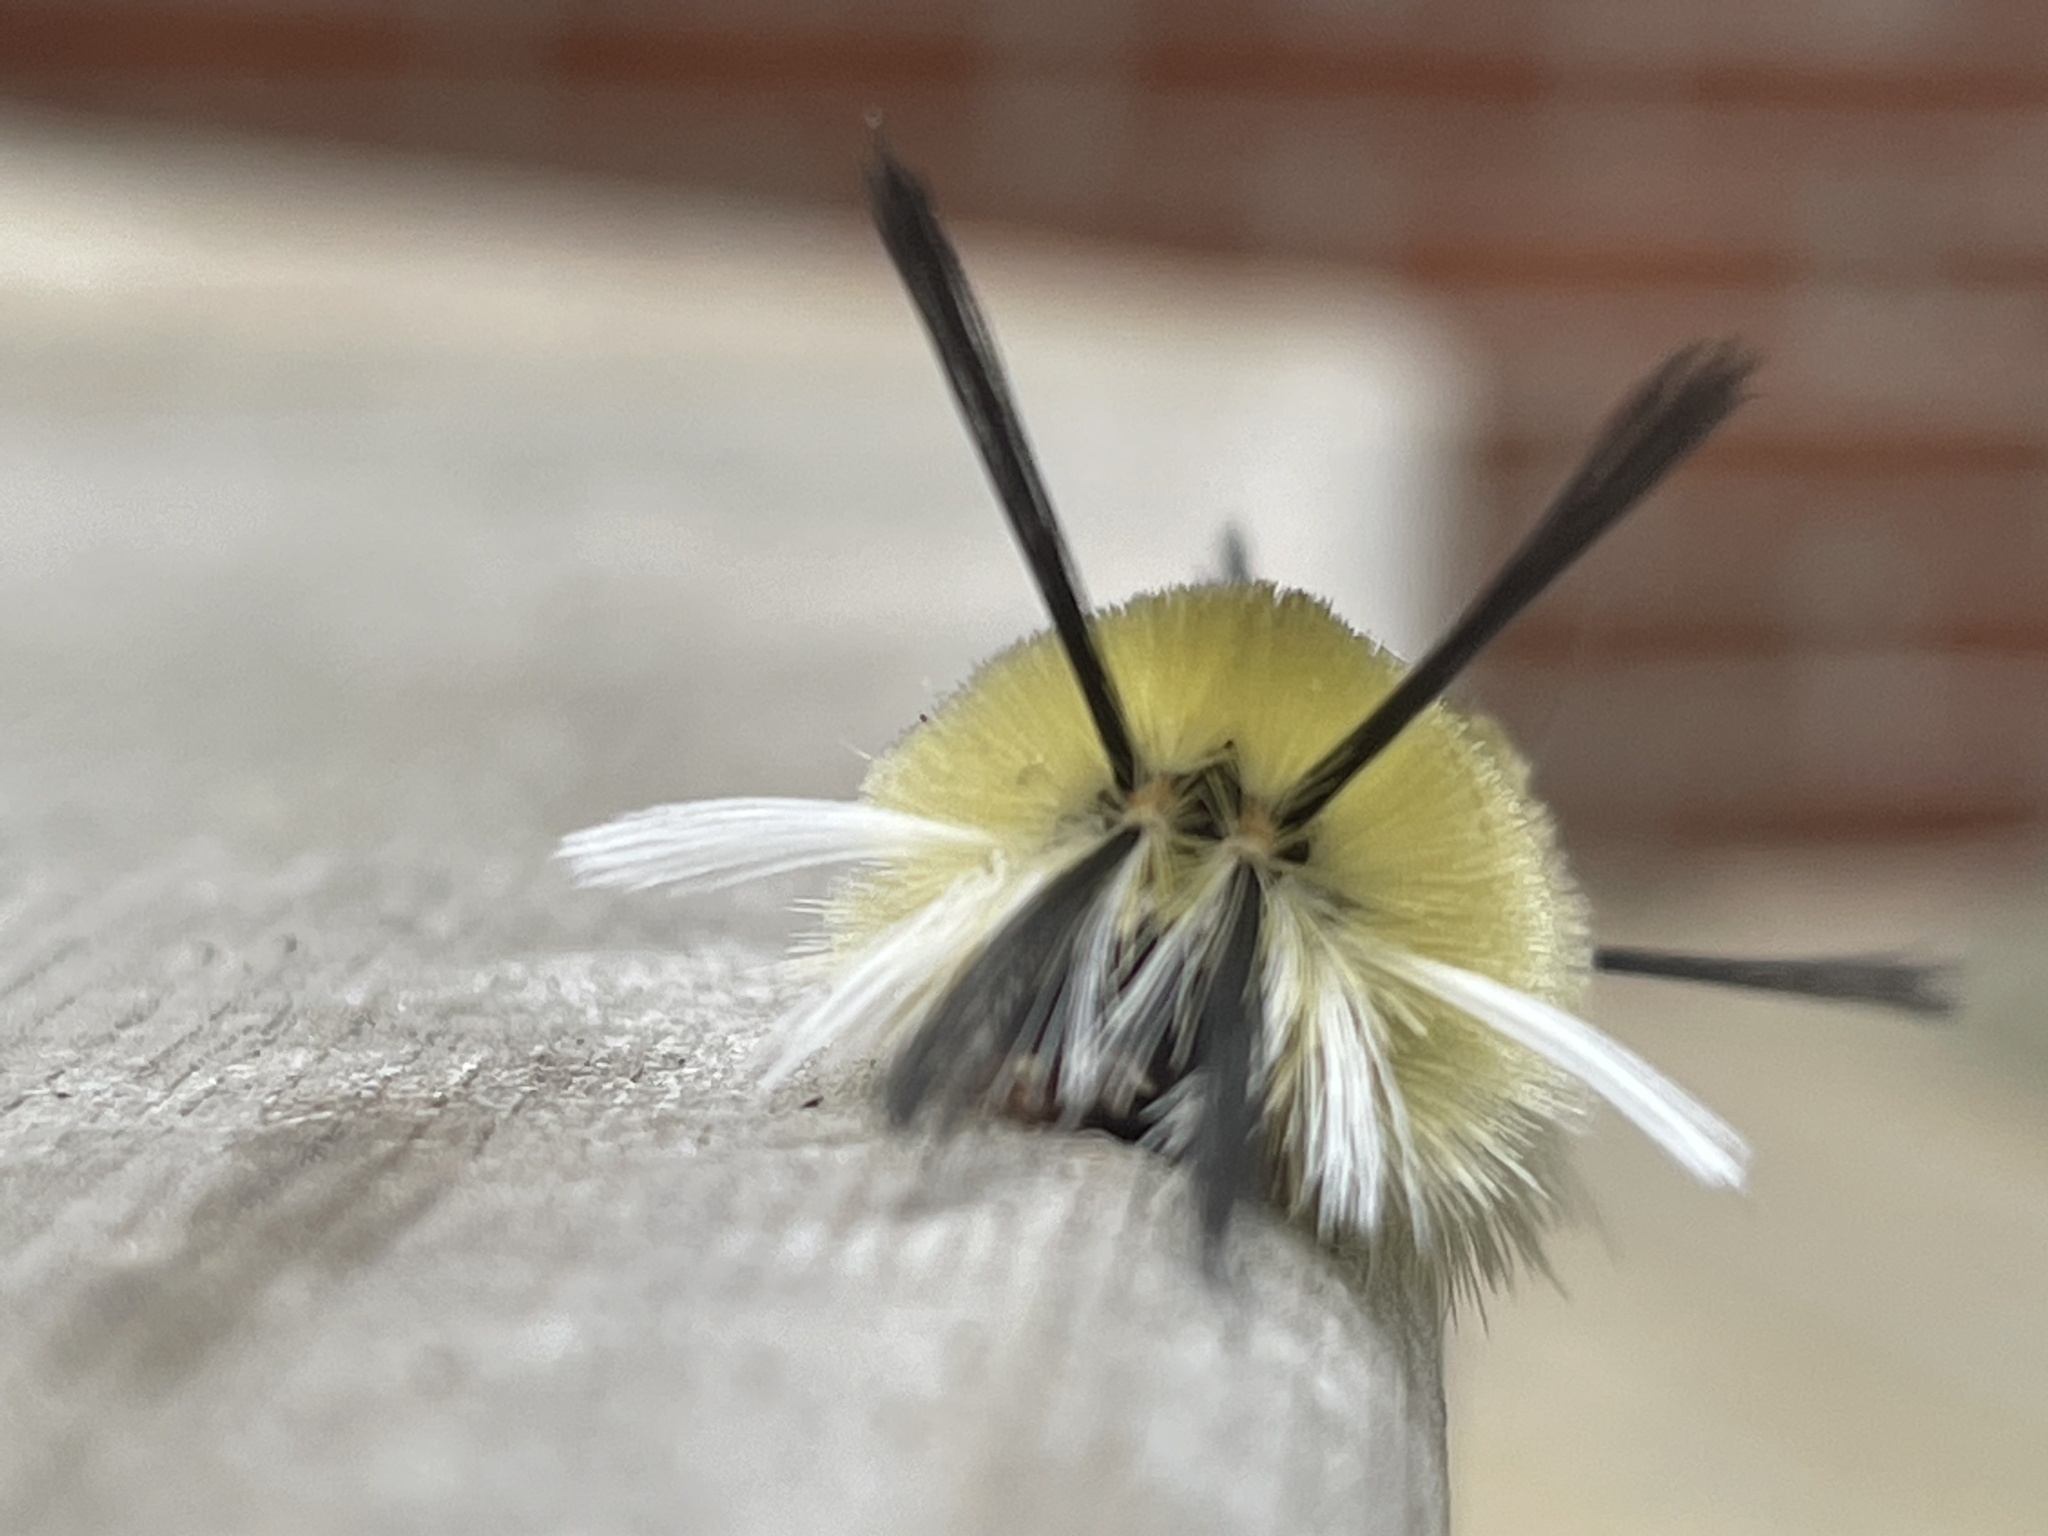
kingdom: Animalia
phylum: Arthropoda
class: Insecta
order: Lepidoptera
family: Erebidae
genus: Halysidota
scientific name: Halysidota tessellaris
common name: Banded tussock moth
